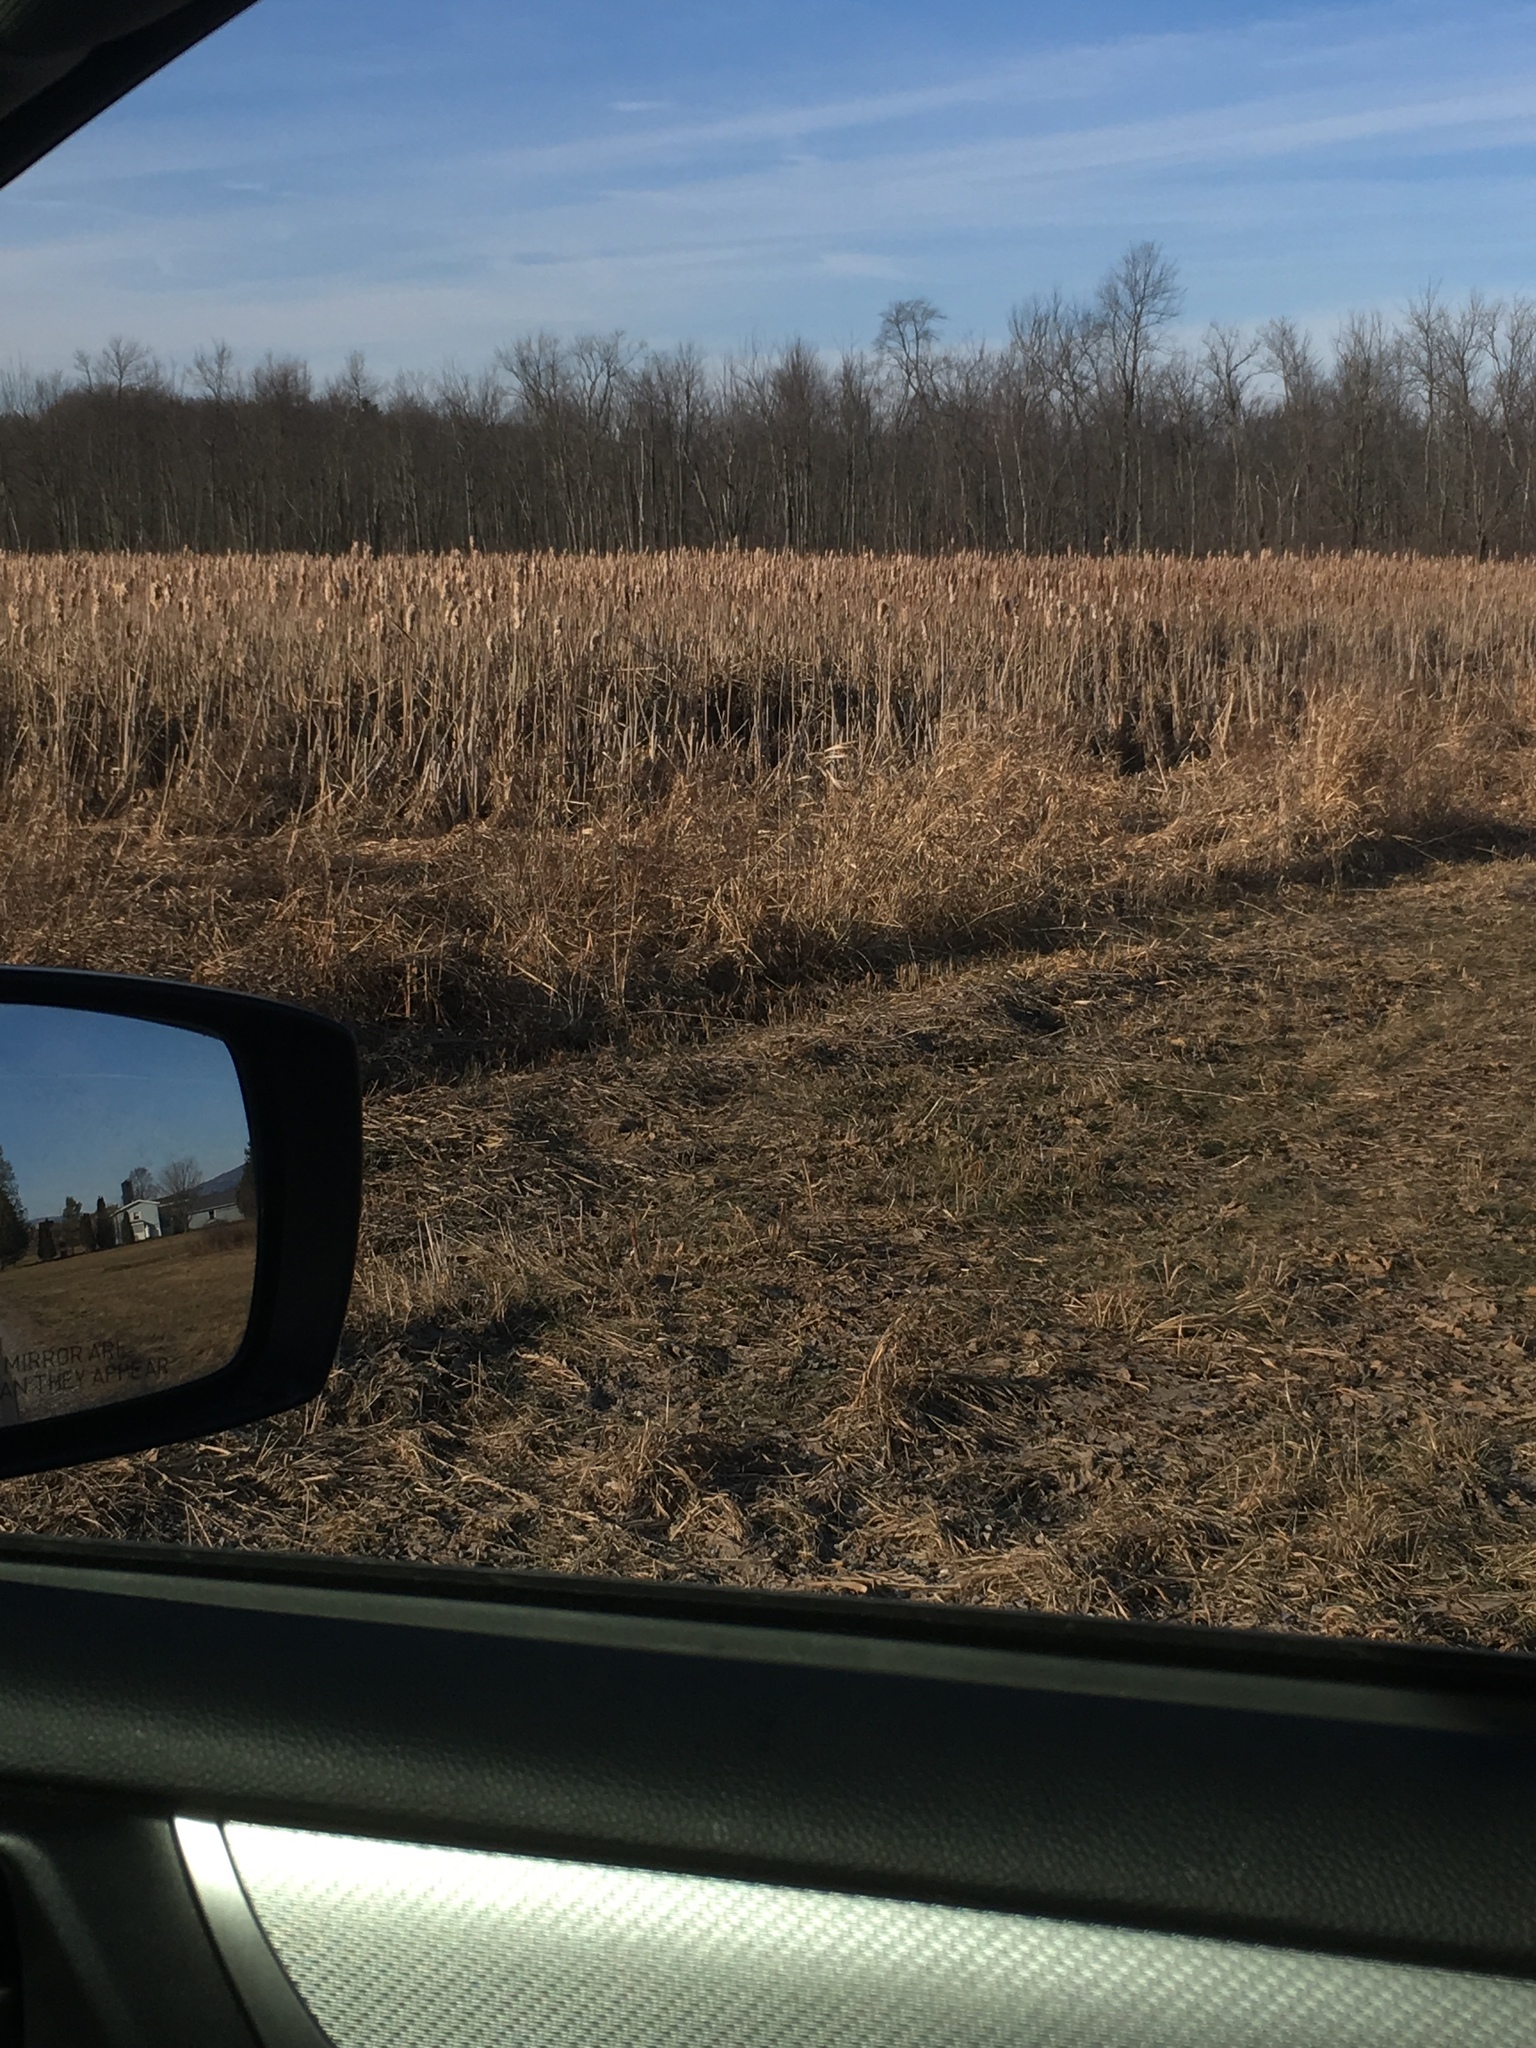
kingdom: Plantae
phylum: Tracheophyta
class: Liliopsida
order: Poales
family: Typhaceae
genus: Typha
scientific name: Typha
